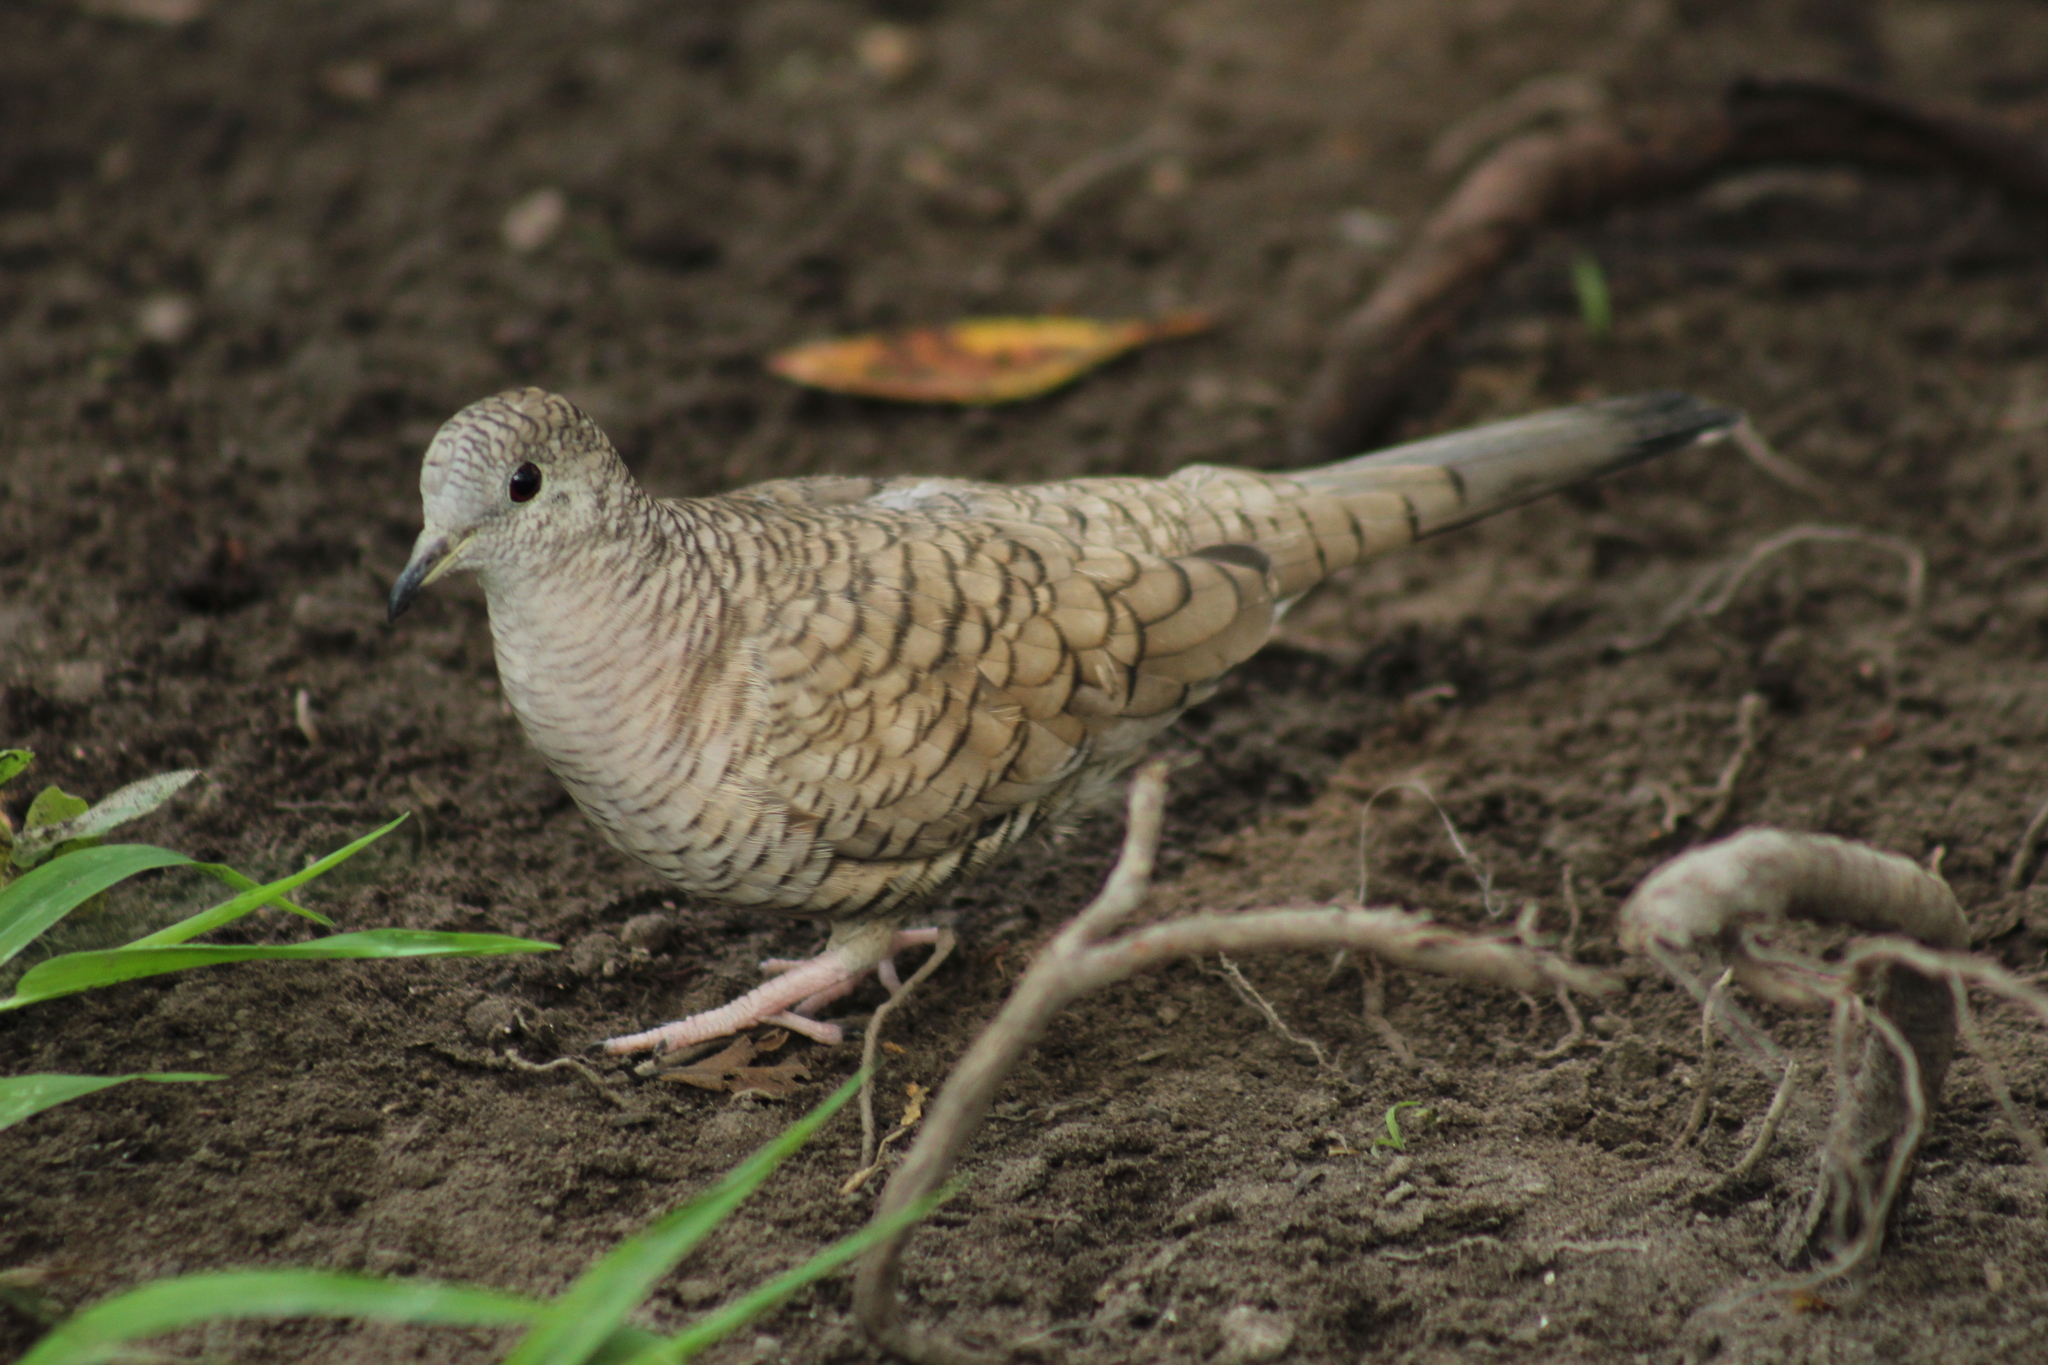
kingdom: Animalia
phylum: Chordata
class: Aves
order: Columbiformes
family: Columbidae
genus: Columbina
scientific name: Columbina inca
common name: Inca dove
